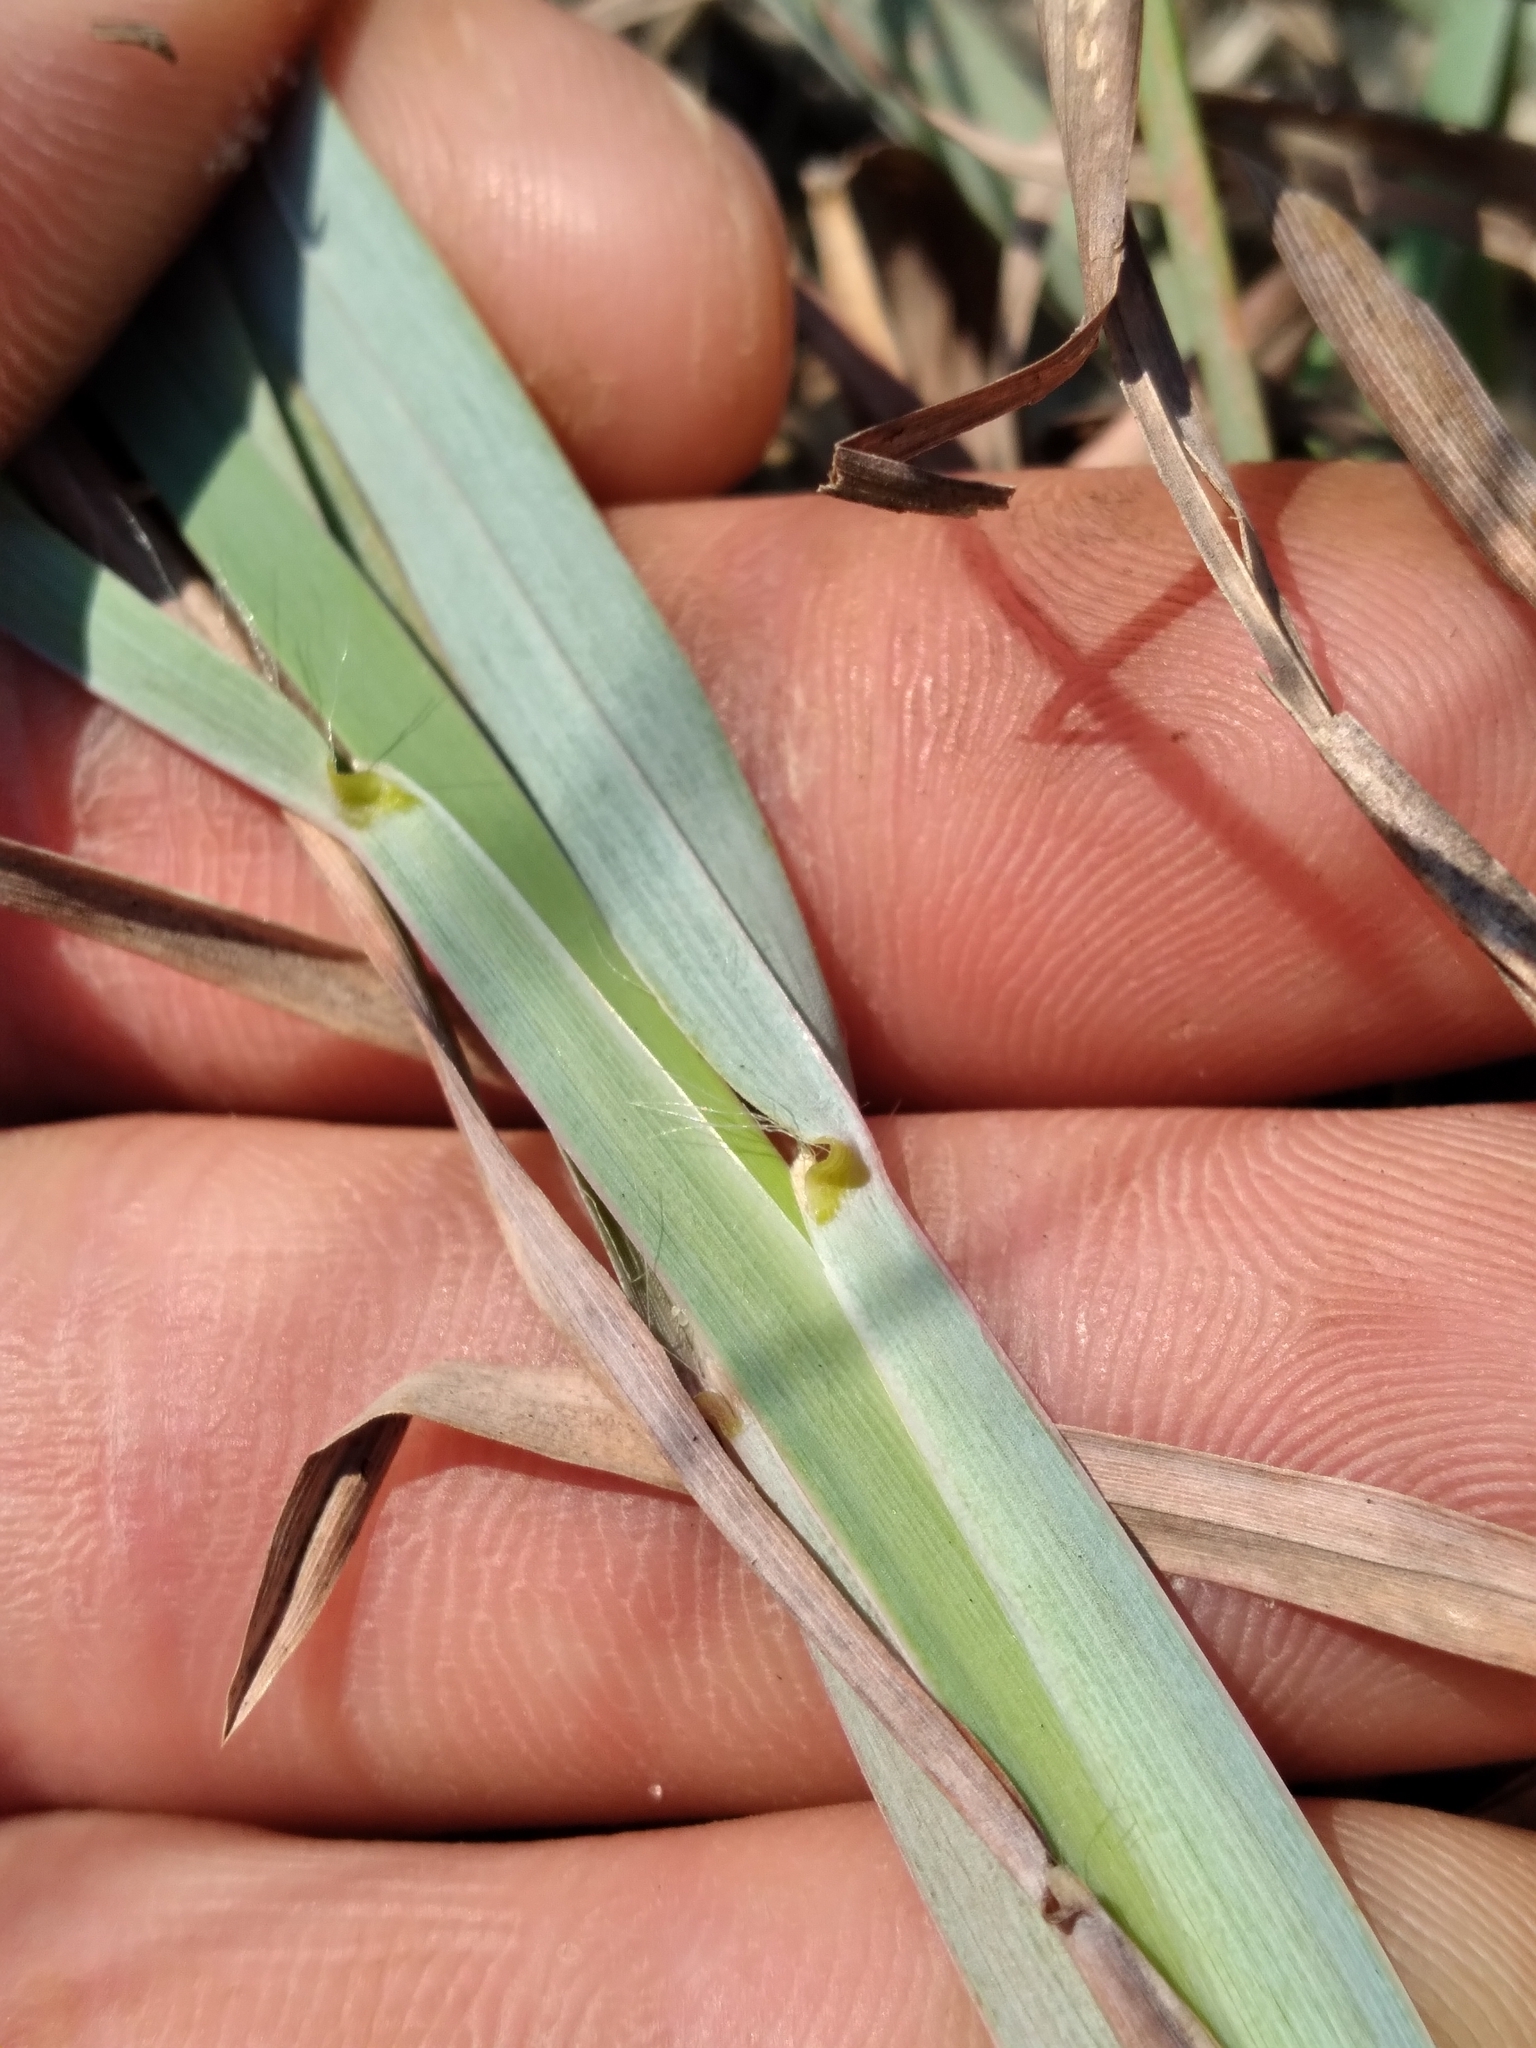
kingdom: Plantae
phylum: Tracheophyta
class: Liliopsida
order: Poales
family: Poaceae
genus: Schizachyrium
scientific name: Schizachyrium scoparium
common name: Little bluestem
